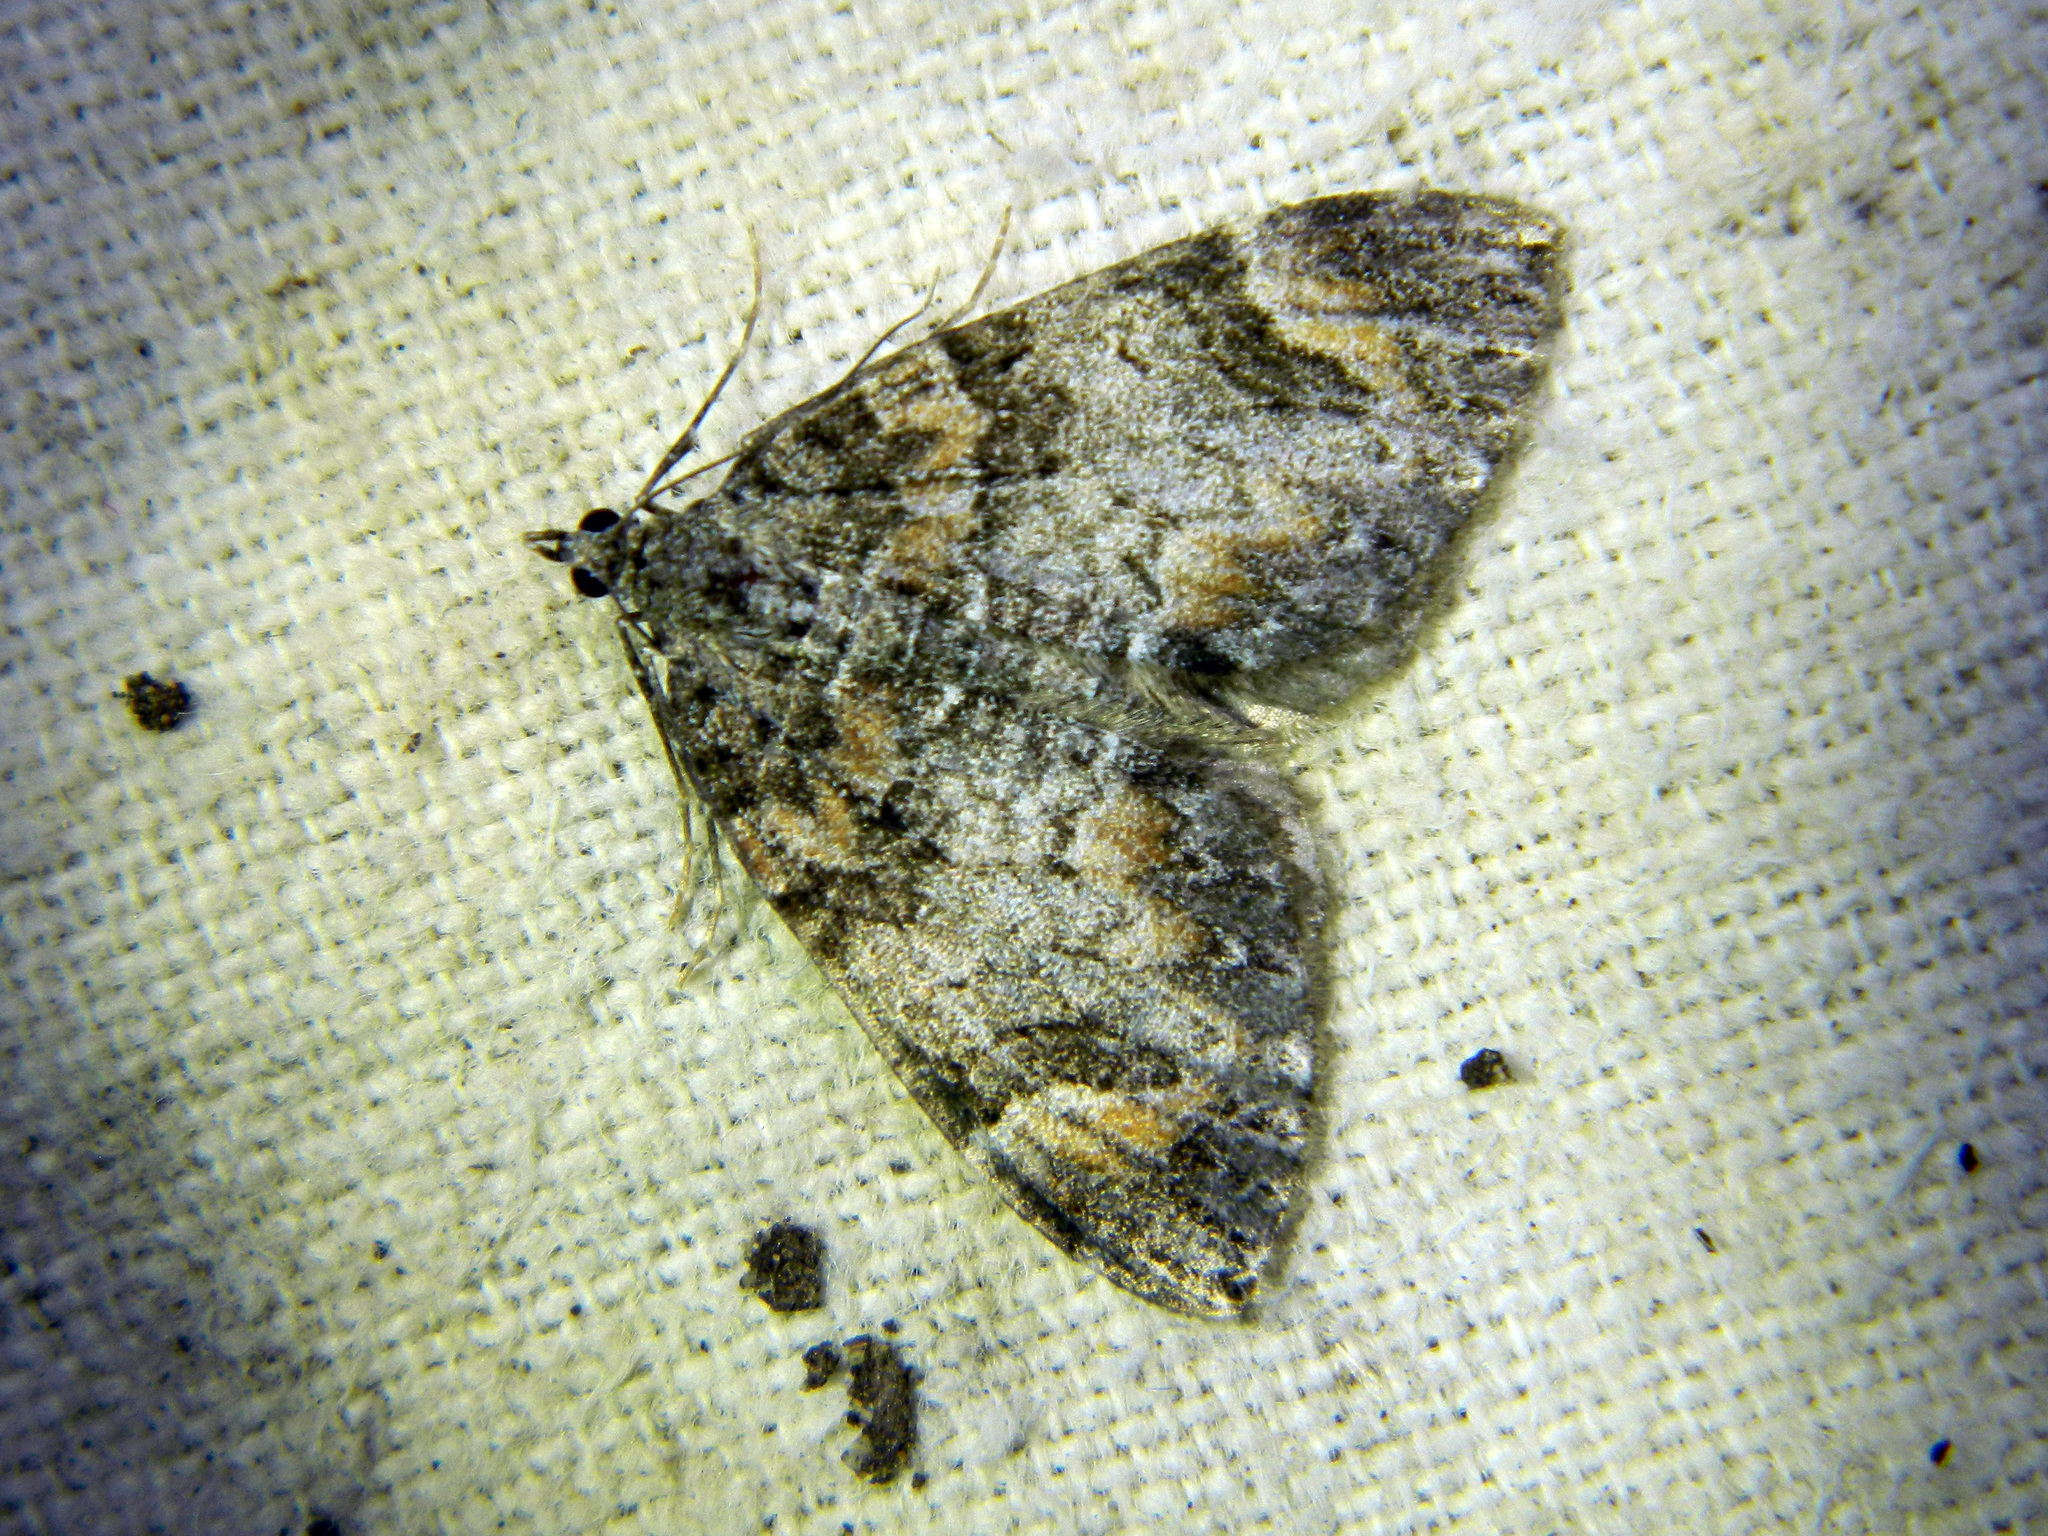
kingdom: Animalia
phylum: Arthropoda
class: Insecta
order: Lepidoptera
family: Geometridae
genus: Dysstroma
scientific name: Dysstroma citrata
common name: Dark marbled carpet
